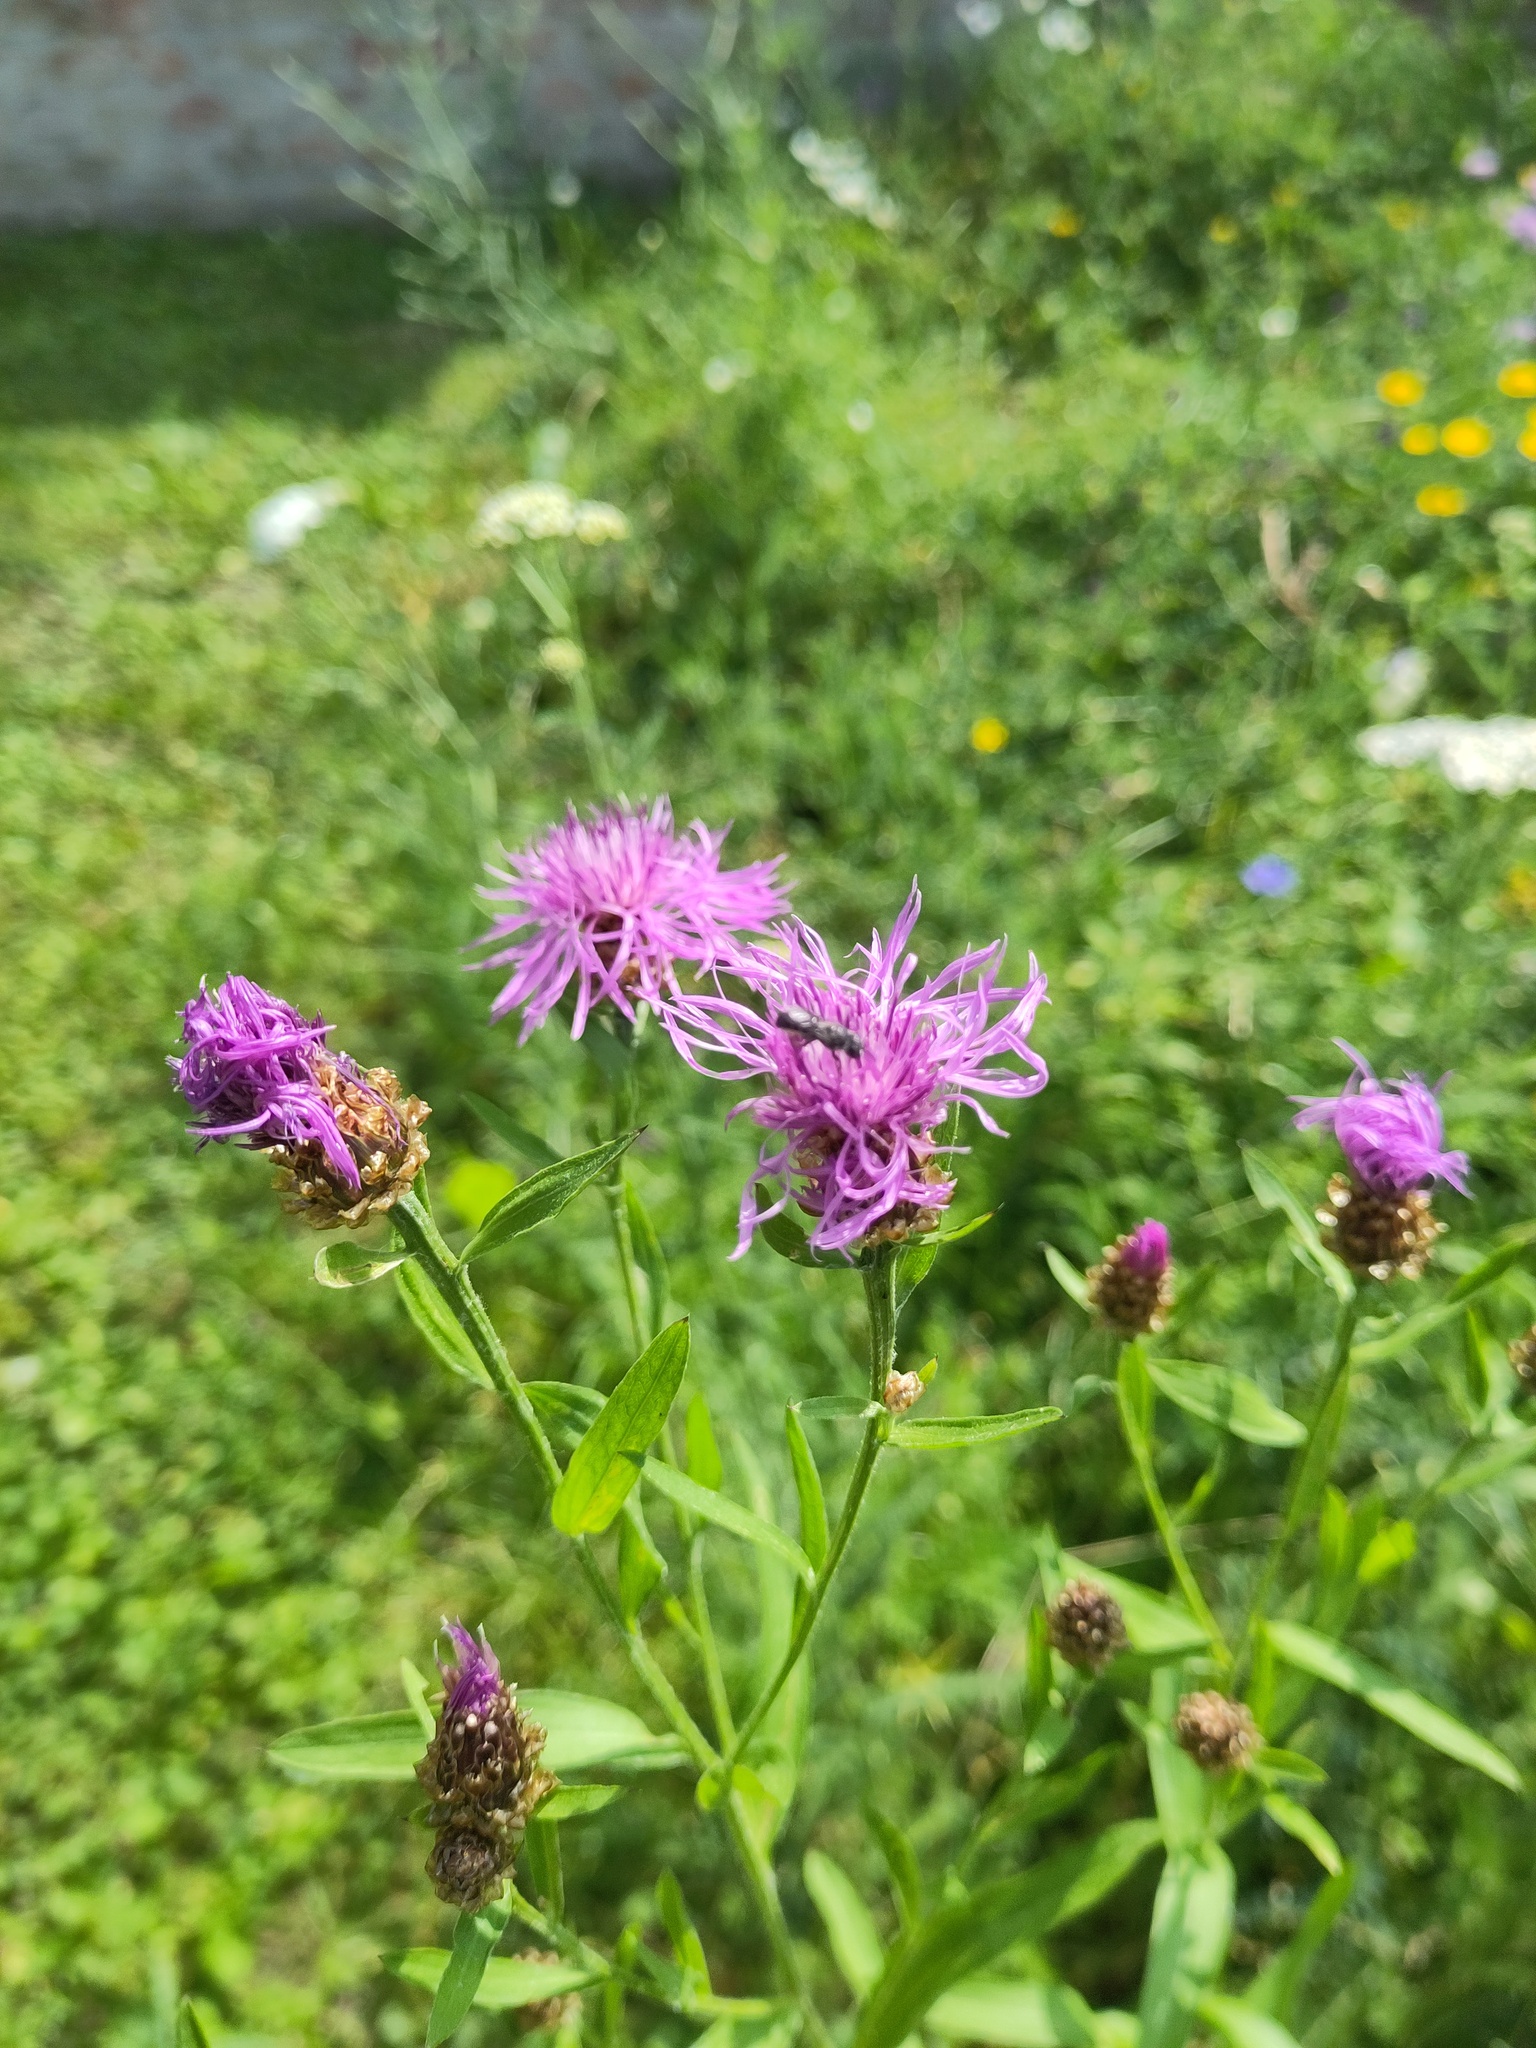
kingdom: Plantae
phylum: Tracheophyta
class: Magnoliopsida
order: Asterales
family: Asteraceae
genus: Centaurea
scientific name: Centaurea jacea
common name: Brown knapweed
